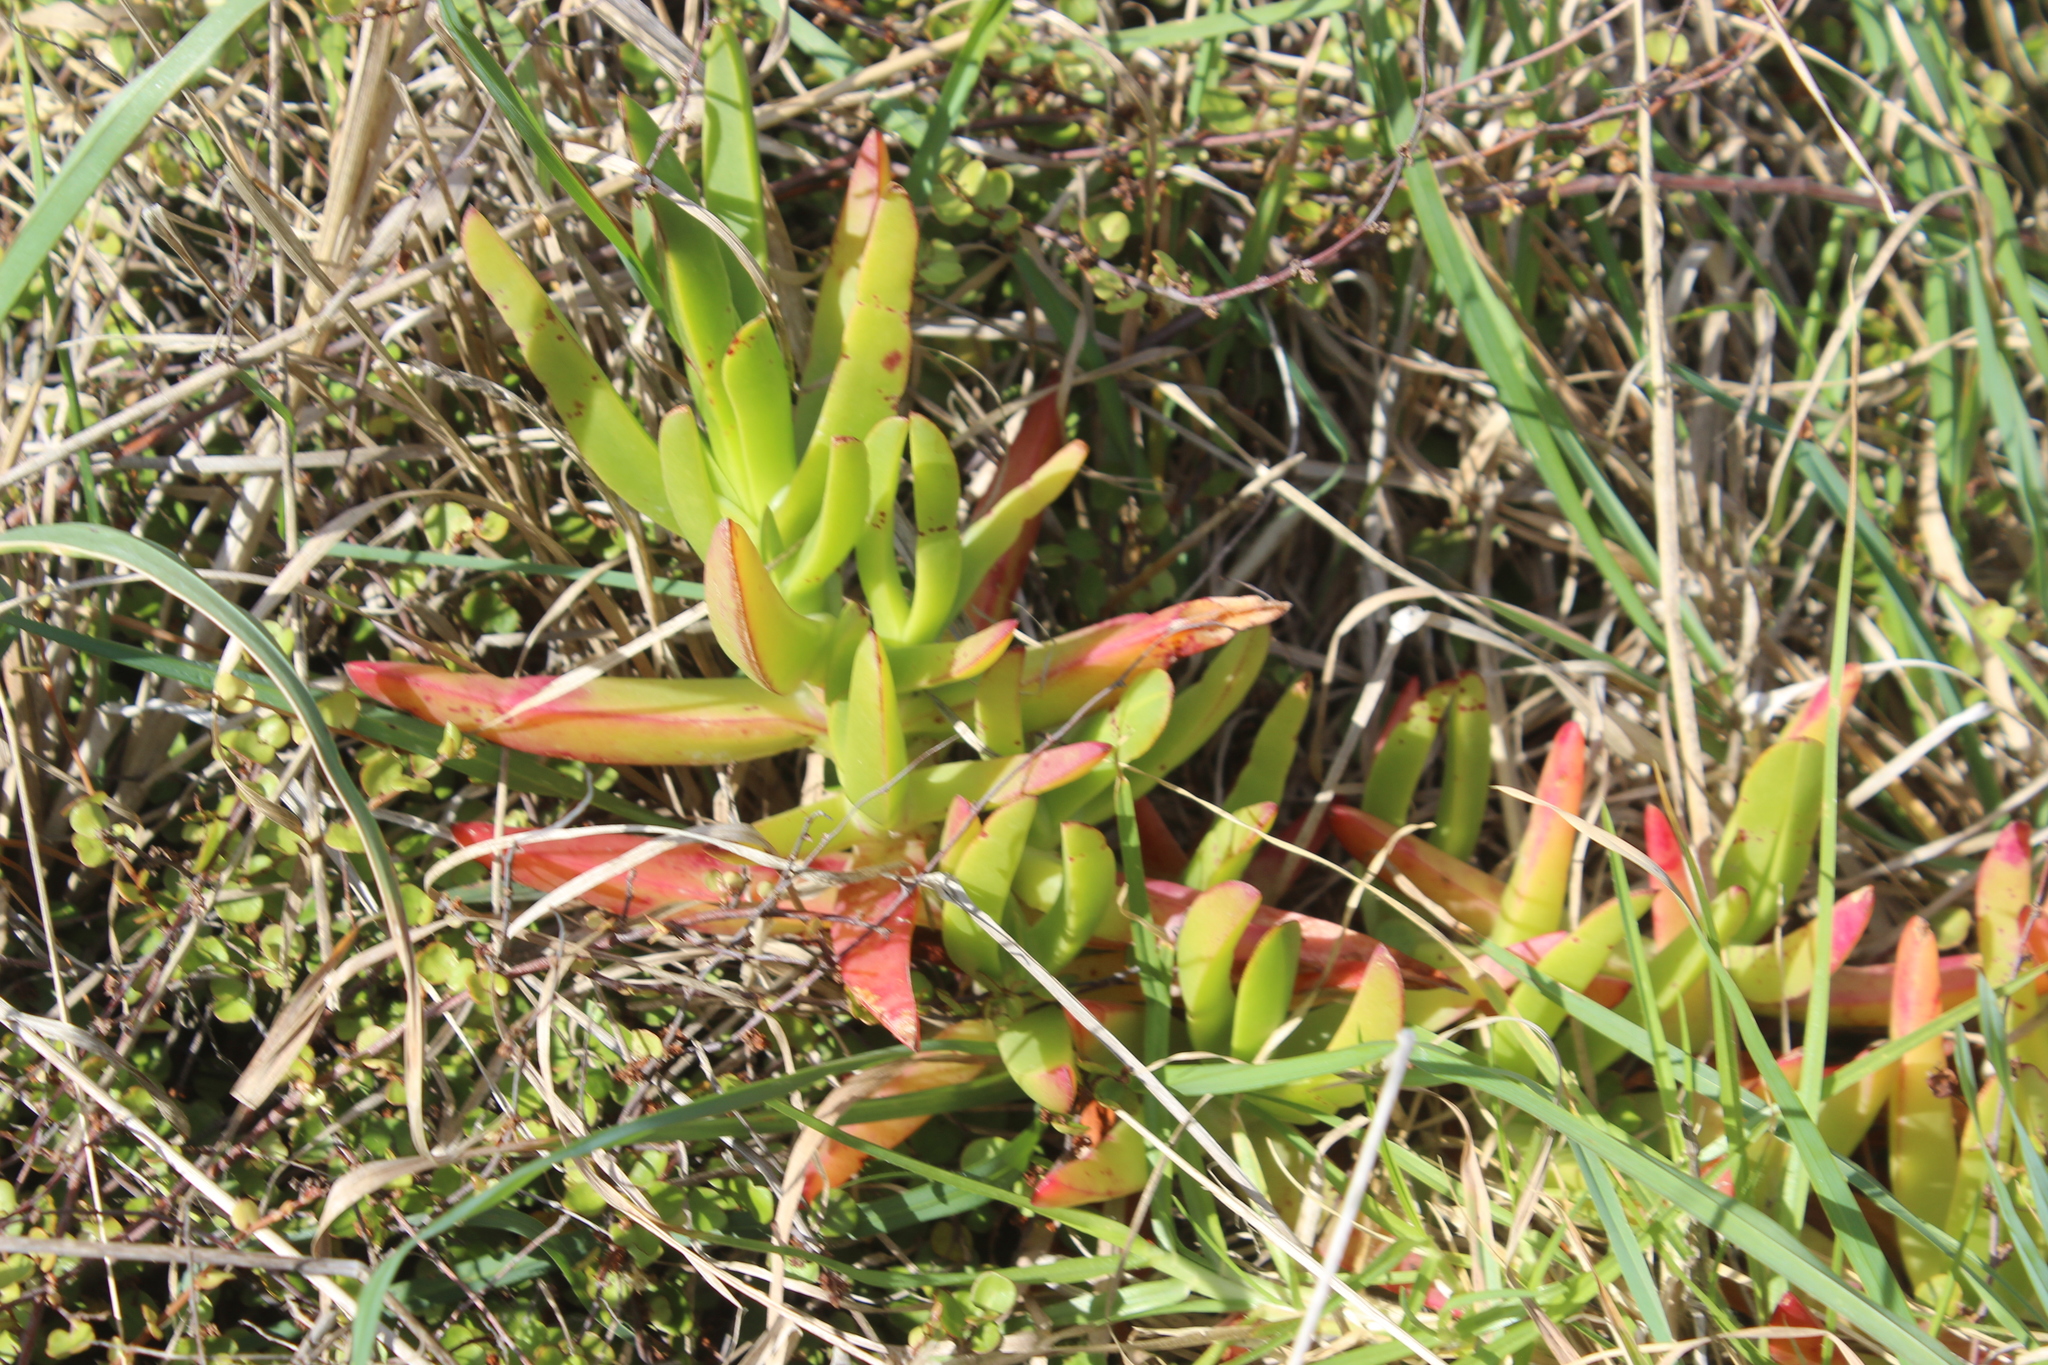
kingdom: Plantae
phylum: Tracheophyta
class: Magnoliopsida
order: Caryophyllales
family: Aizoaceae
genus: Carpobrotus
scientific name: Carpobrotus edulis
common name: Hottentot-fig
